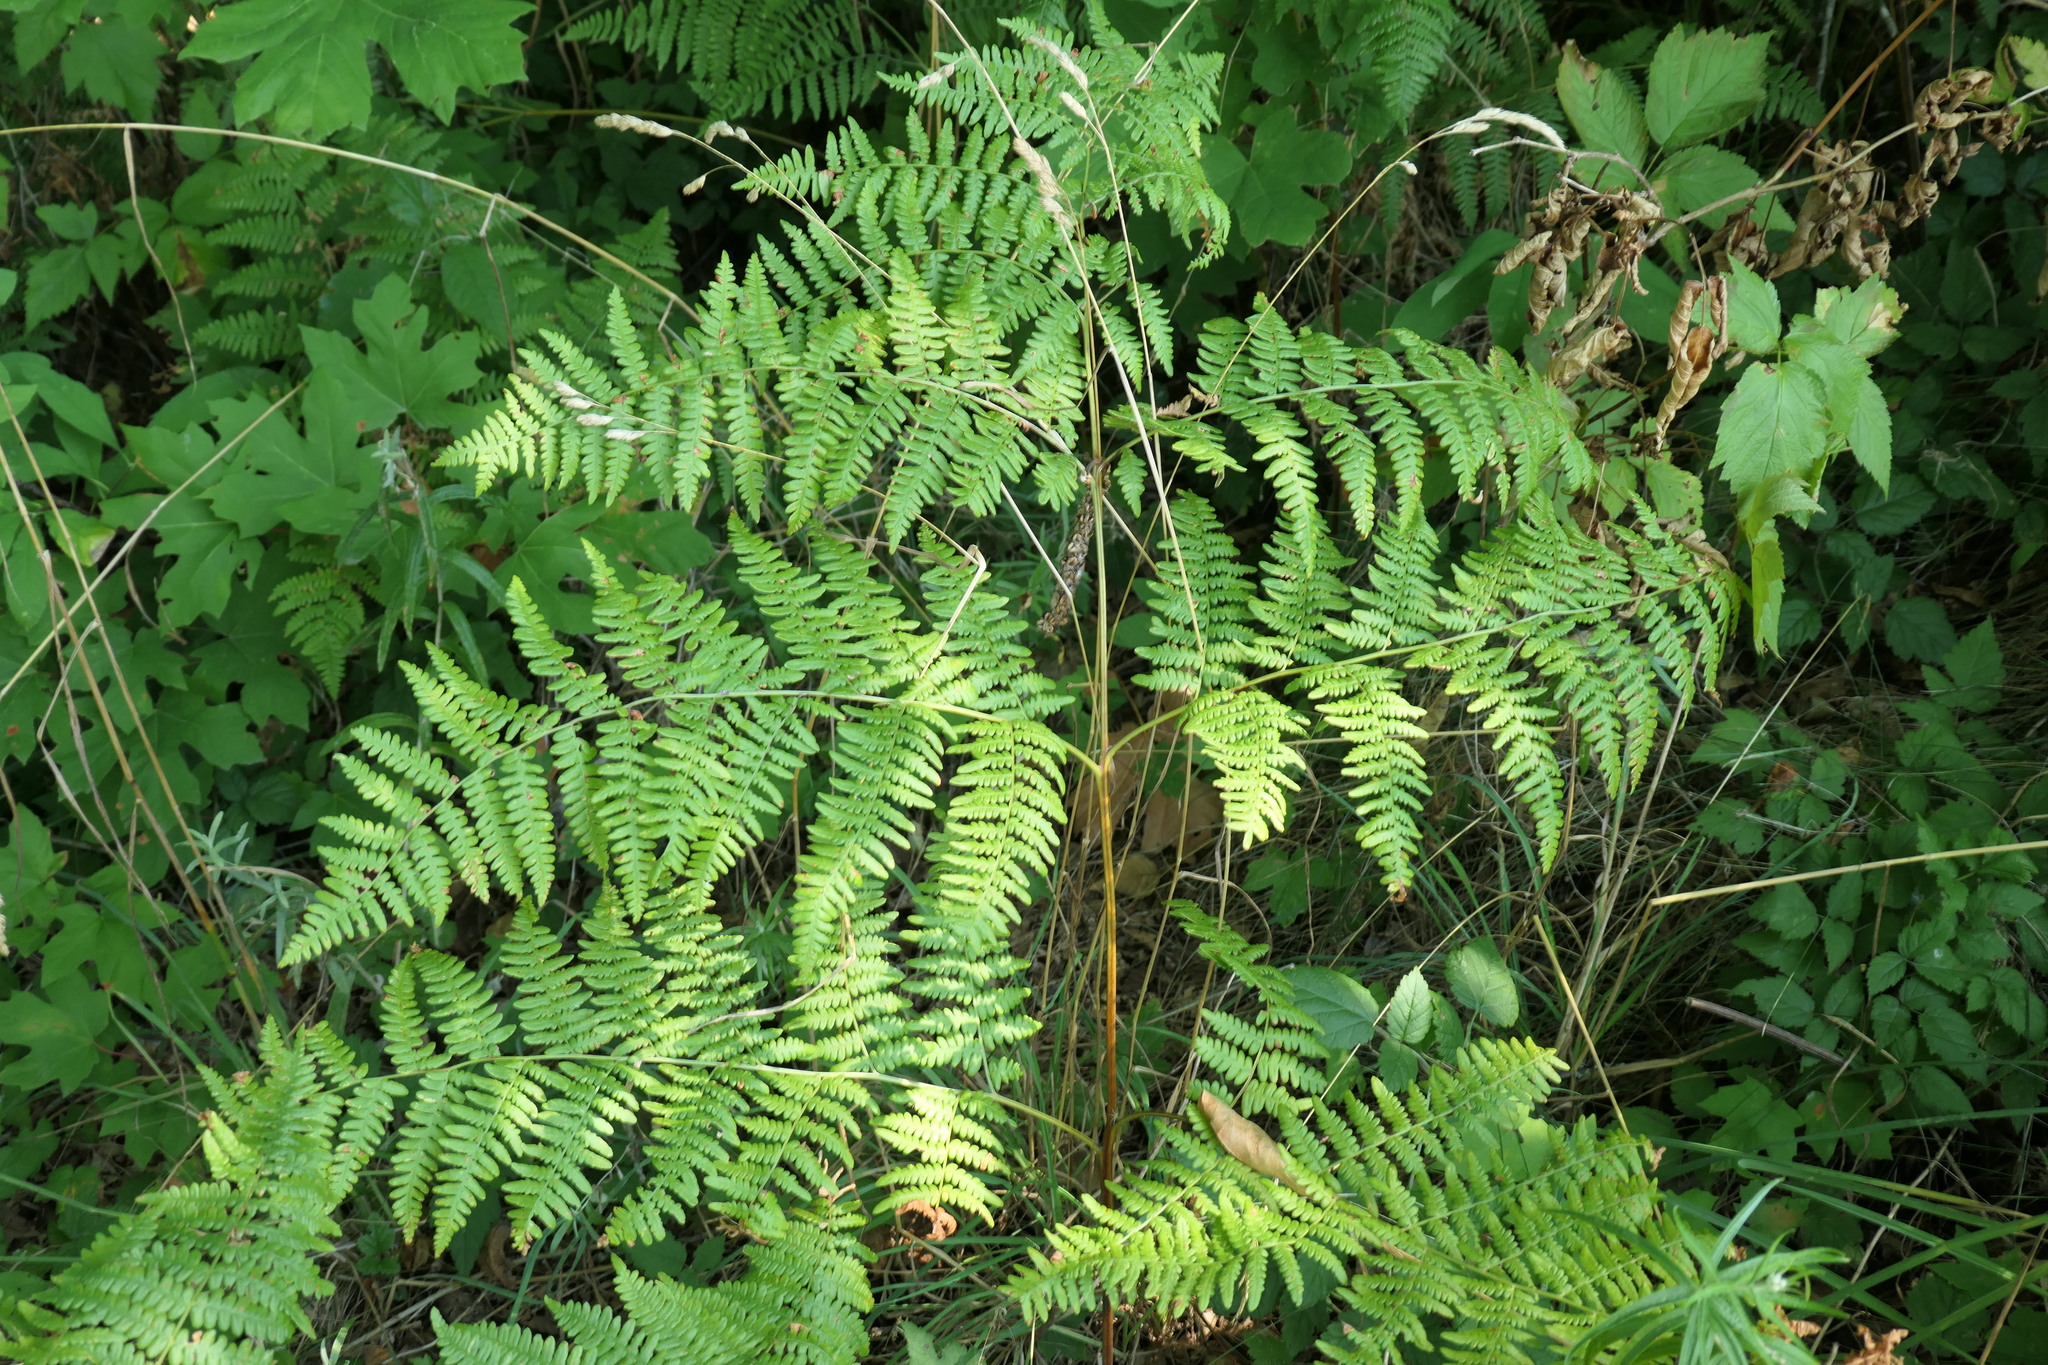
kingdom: Plantae
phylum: Tracheophyta
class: Polypodiopsida
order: Polypodiales
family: Dennstaedtiaceae
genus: Pteridium
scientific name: Pteridium aquilinum
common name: Bracken
